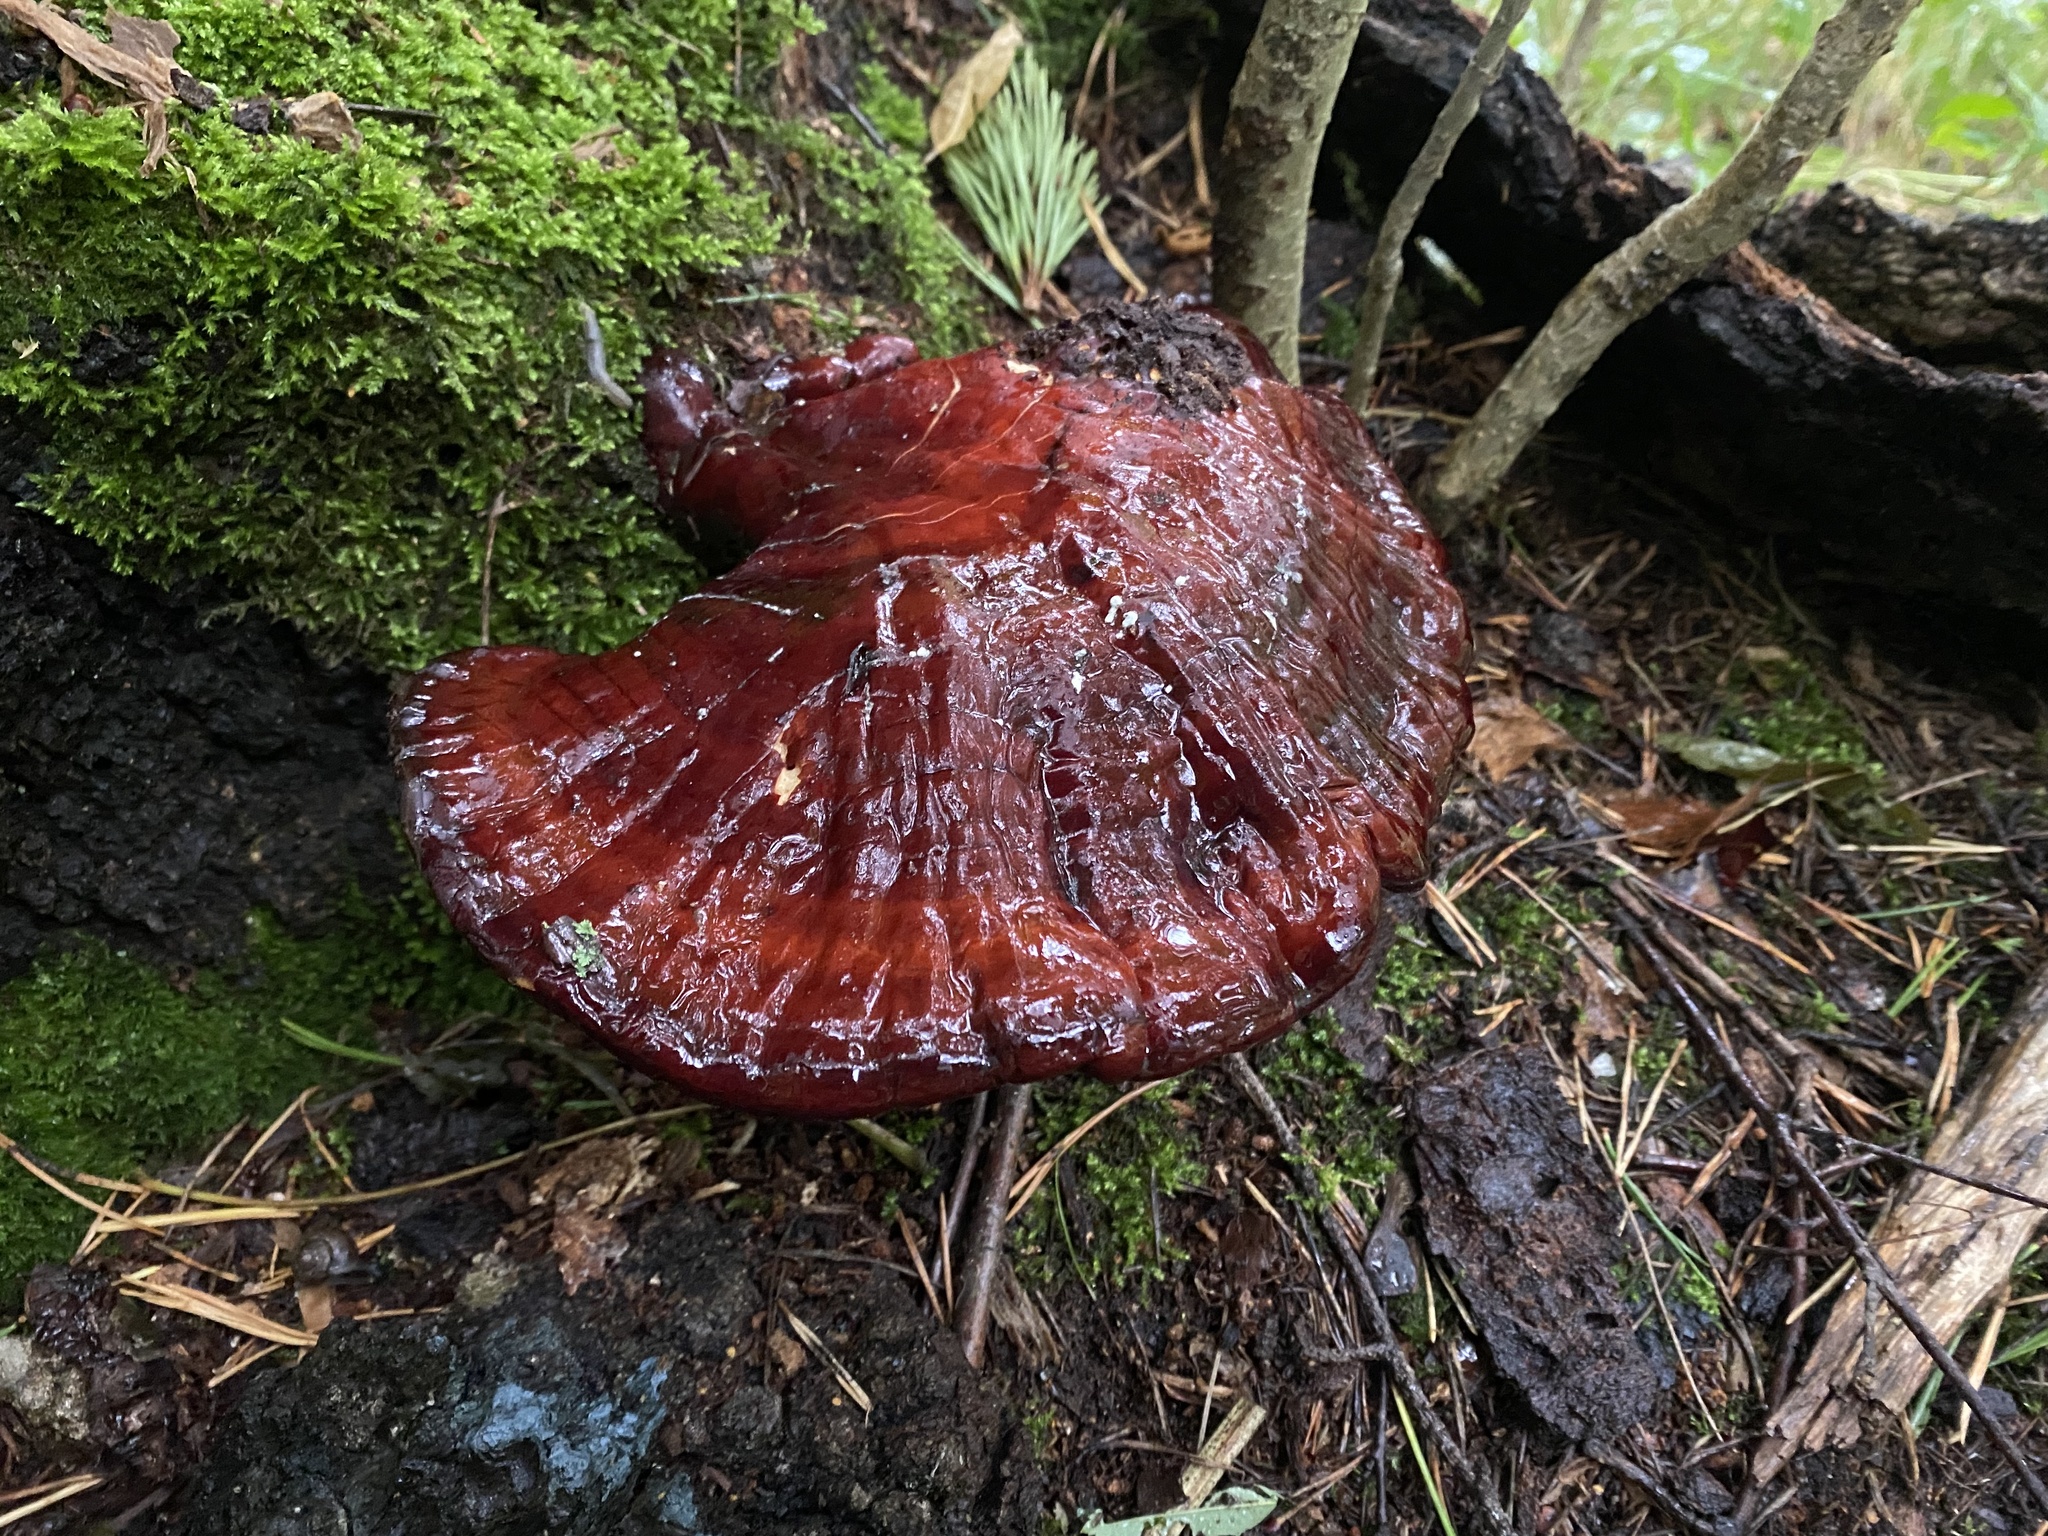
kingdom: Fungi
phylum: Basidiomycota
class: Agaricomycetes
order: Polyporales
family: Polyporaceae
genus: Ganoderma
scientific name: Ganoderma lucidum
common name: Lacquered bracket
